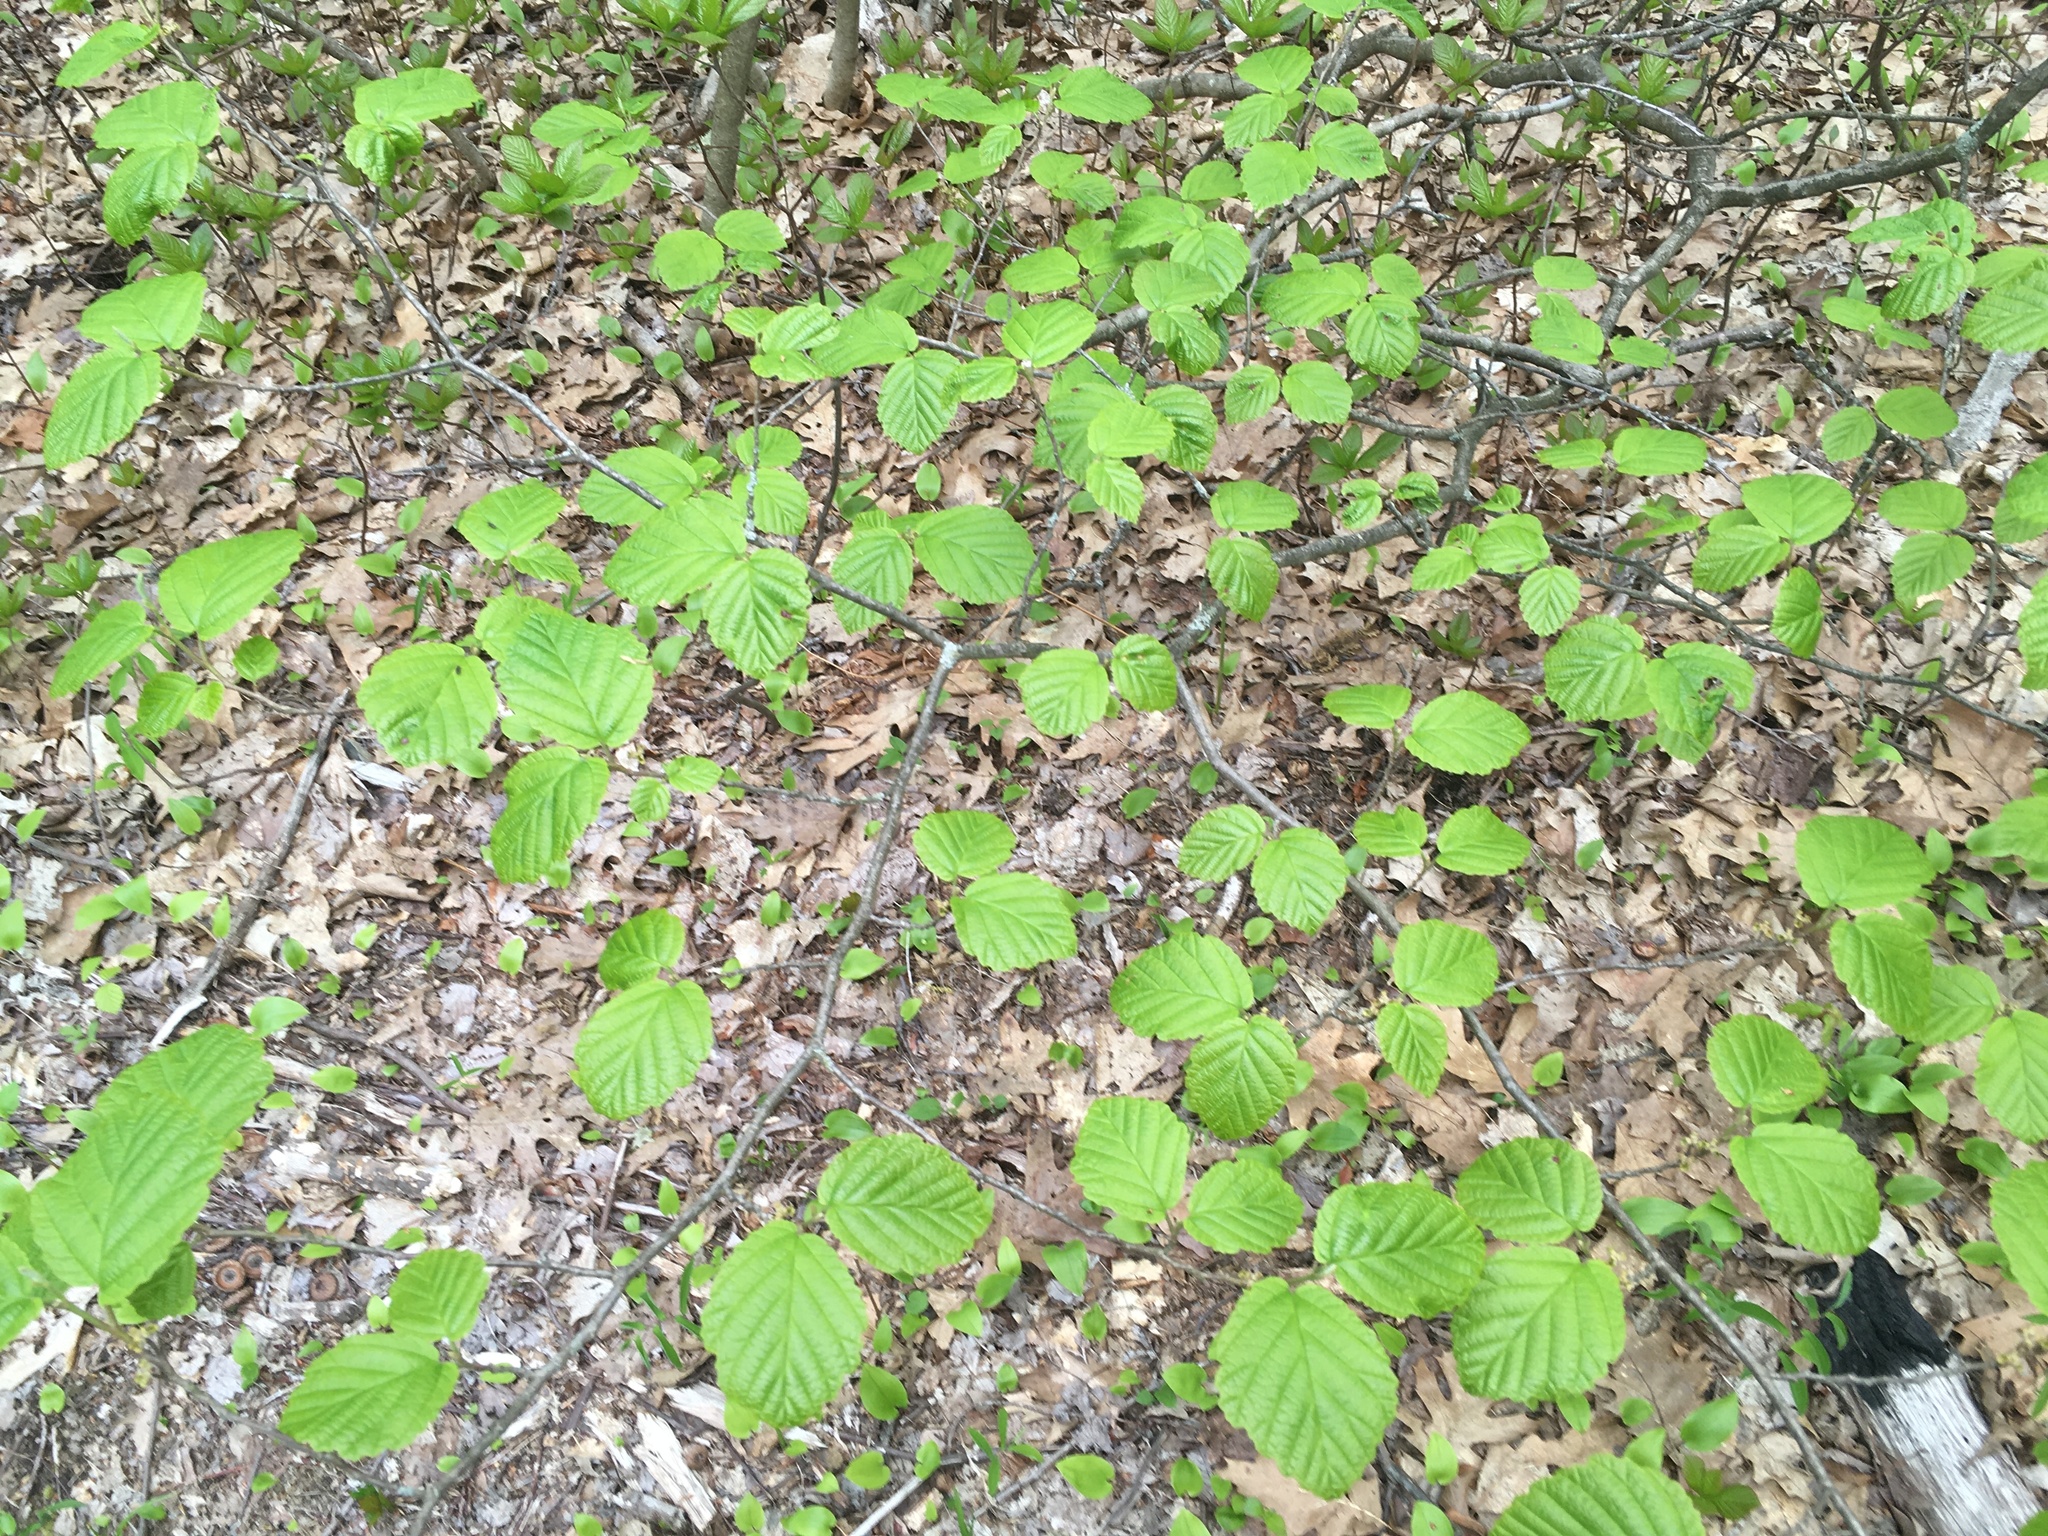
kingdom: Plantae
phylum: Tracheophyta
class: Magnoliopsida
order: Saxifragales
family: Hamamelidaceae
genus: Hamamelis
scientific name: Hamamelis virginiana
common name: Witch-hazel
